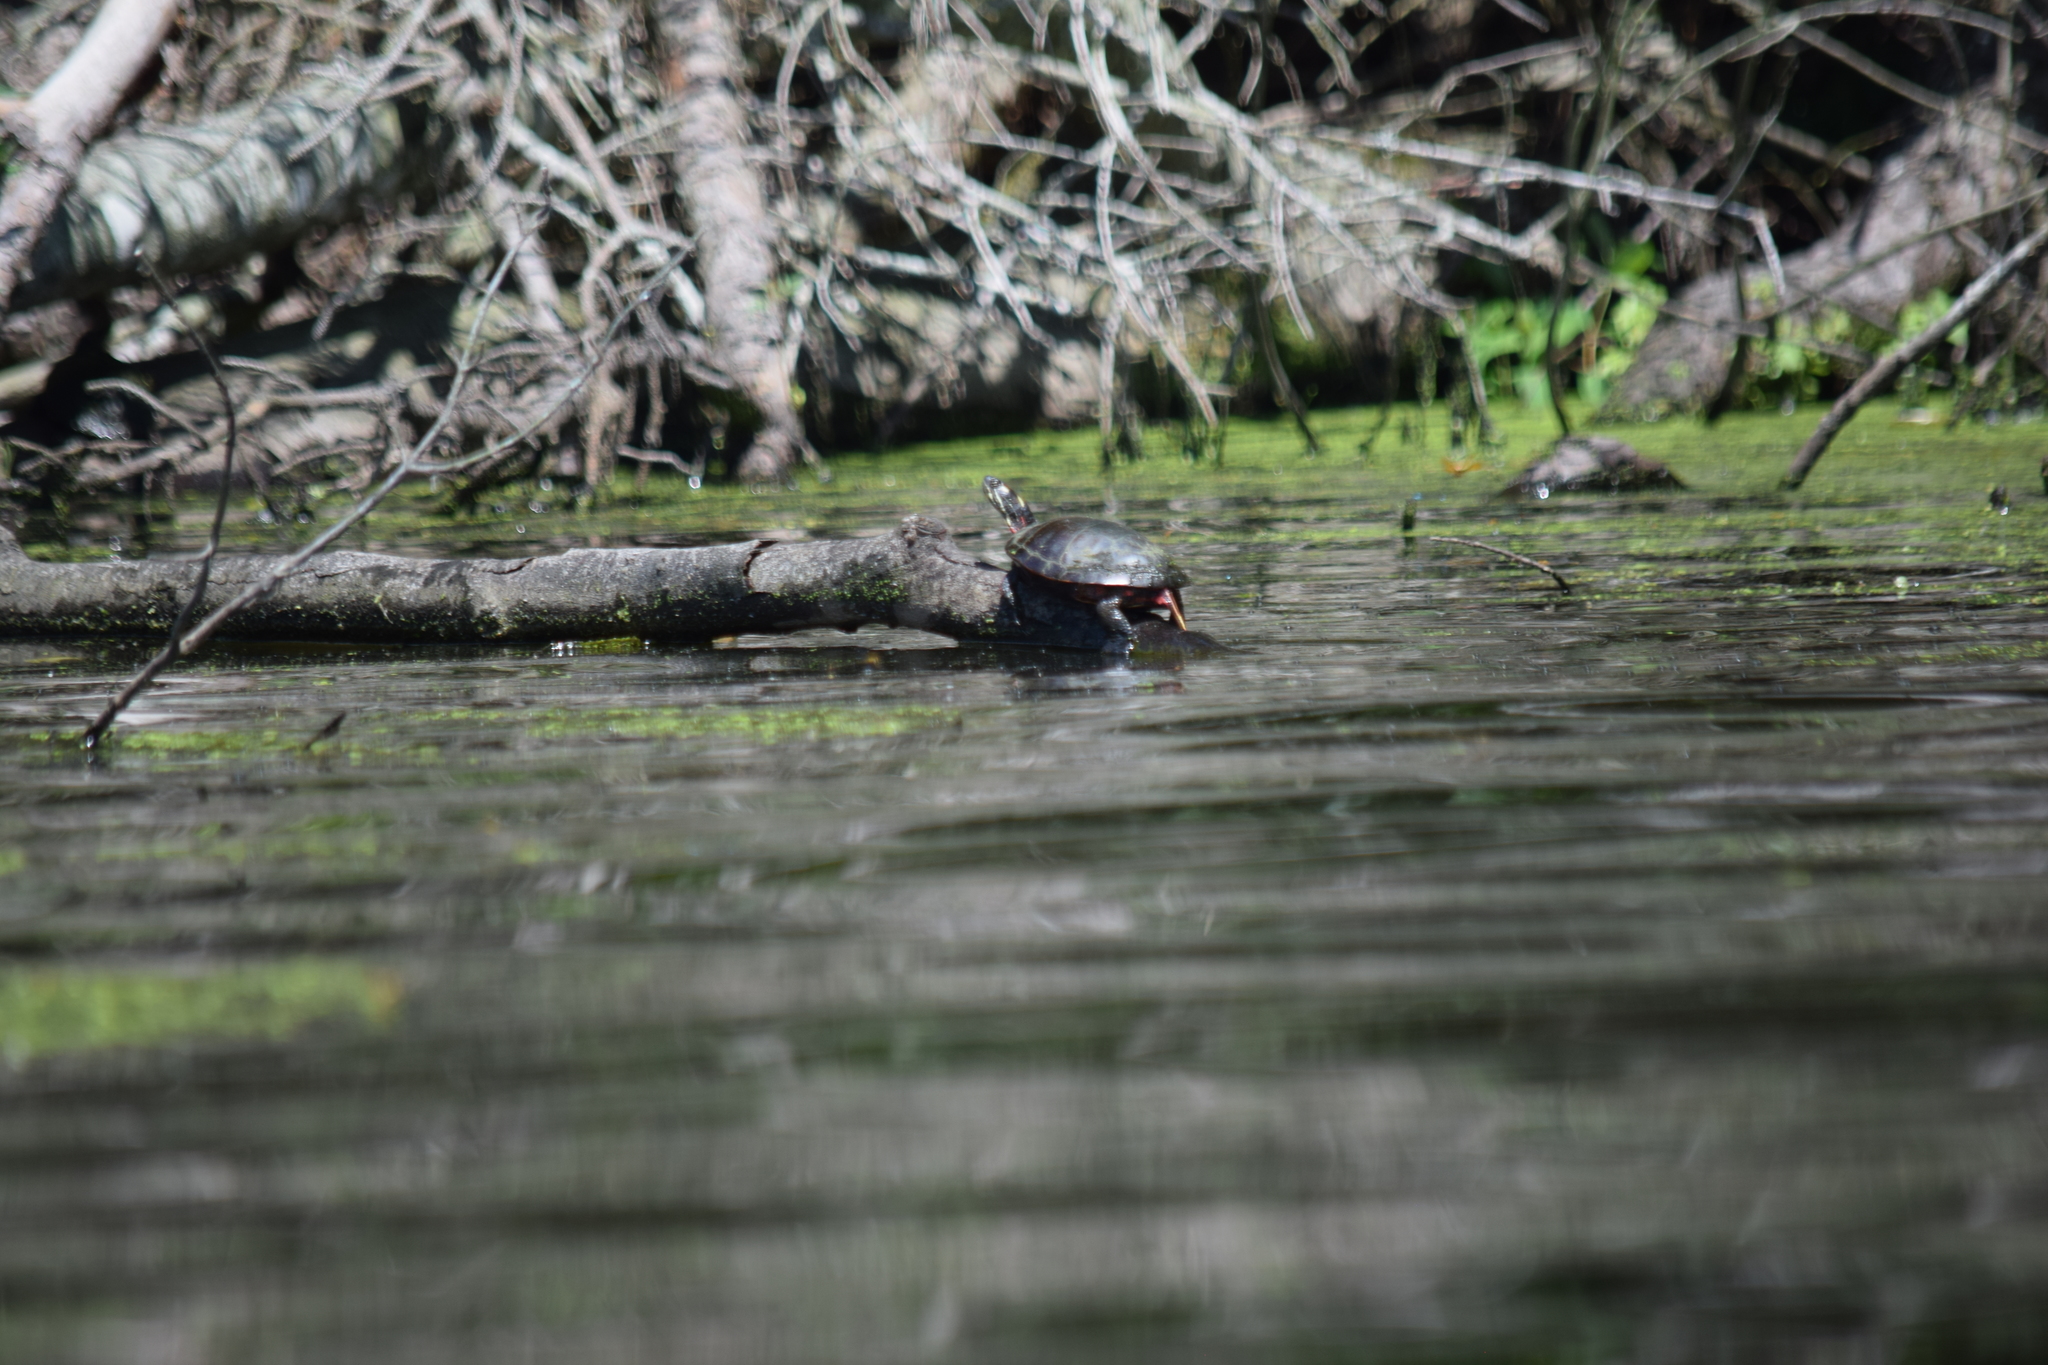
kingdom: Animalia
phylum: Chordata
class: Testudines
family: Emydidae
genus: Chrysemys
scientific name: Chrysemys picta
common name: Painted turtle
